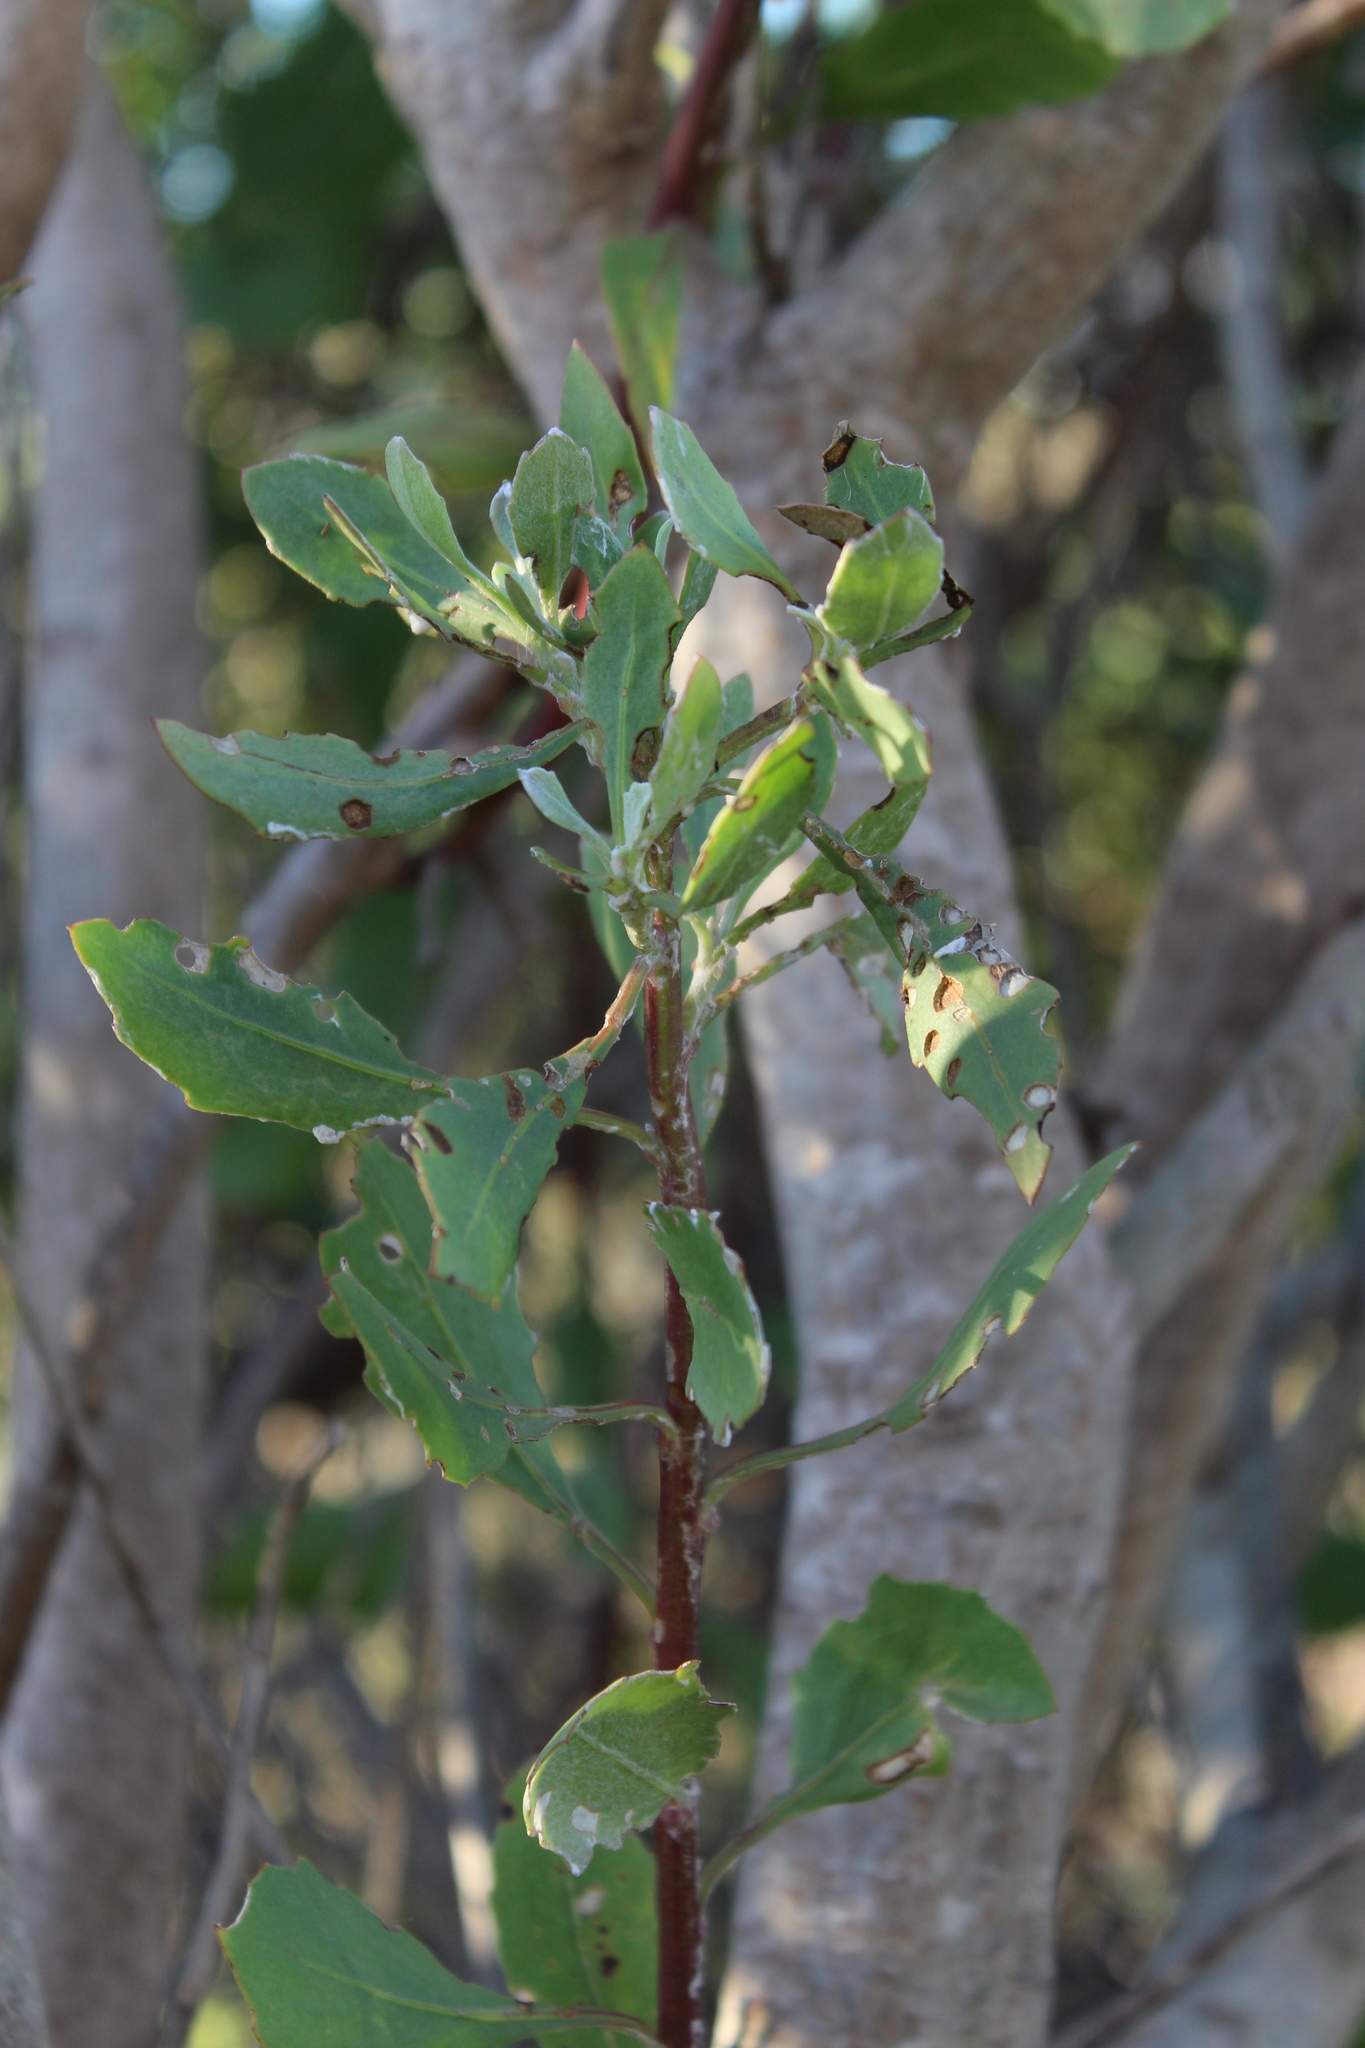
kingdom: Plantae
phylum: Tracheophyta
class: Magnoliopsida
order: Asterales
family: Asteraceae
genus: Osteospermum
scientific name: Osteospermum moniliferum
